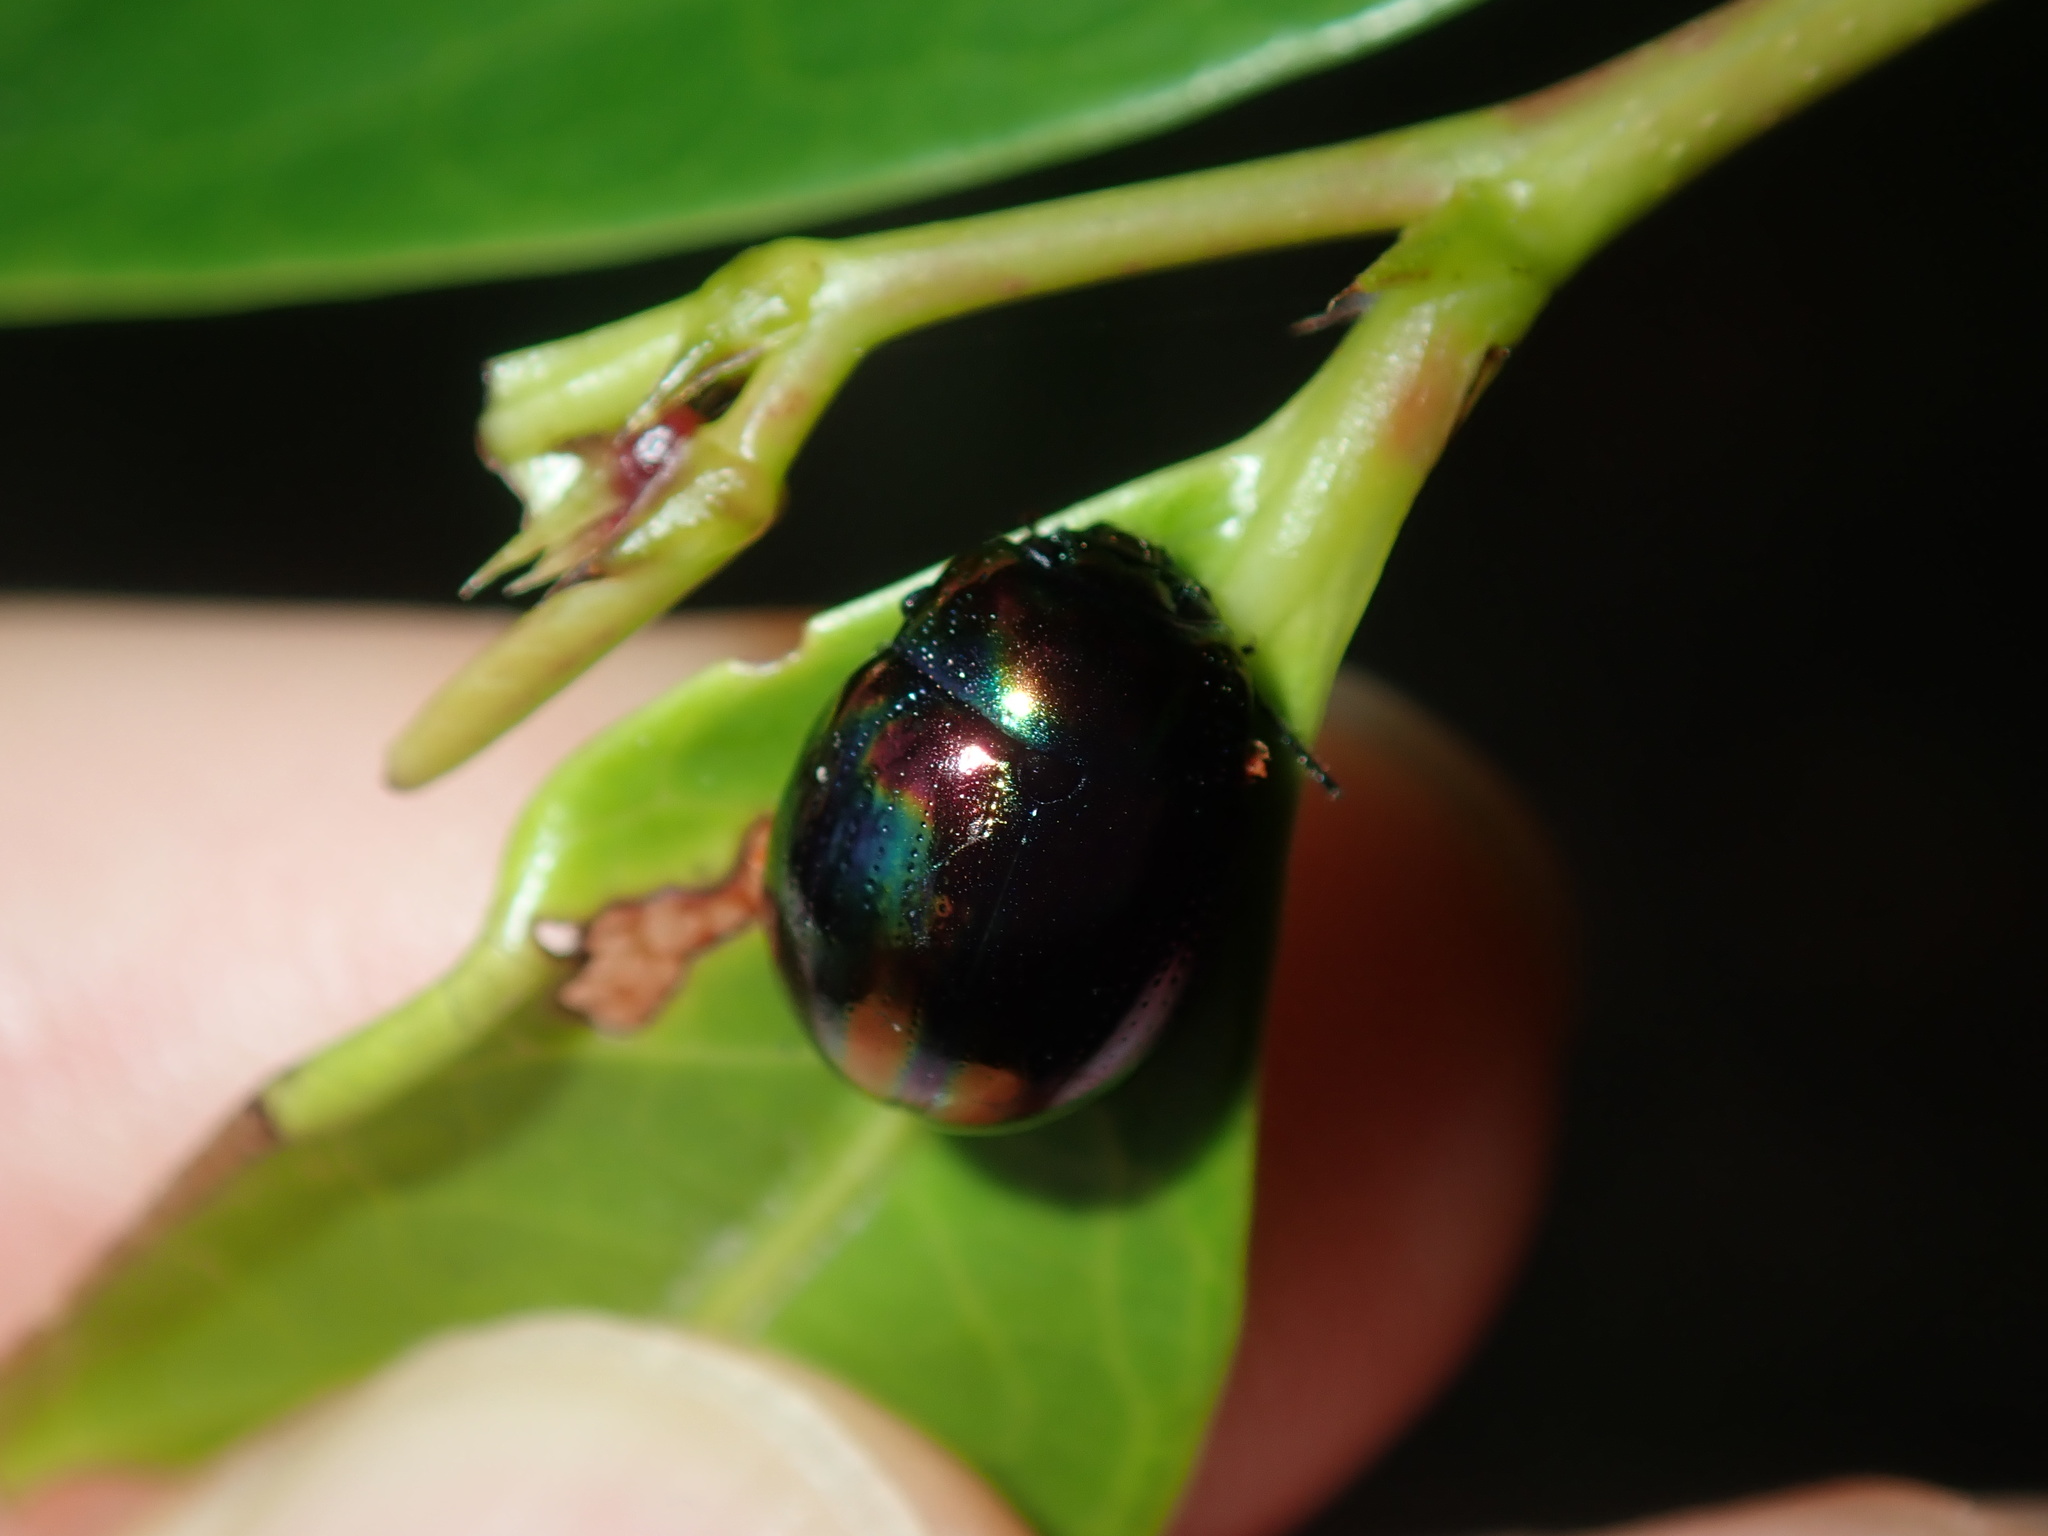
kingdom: Animalia
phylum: Arthropoda
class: Insecta
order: Coleoptera
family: Chrysomelidae
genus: Callidemum
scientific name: Callidemum
